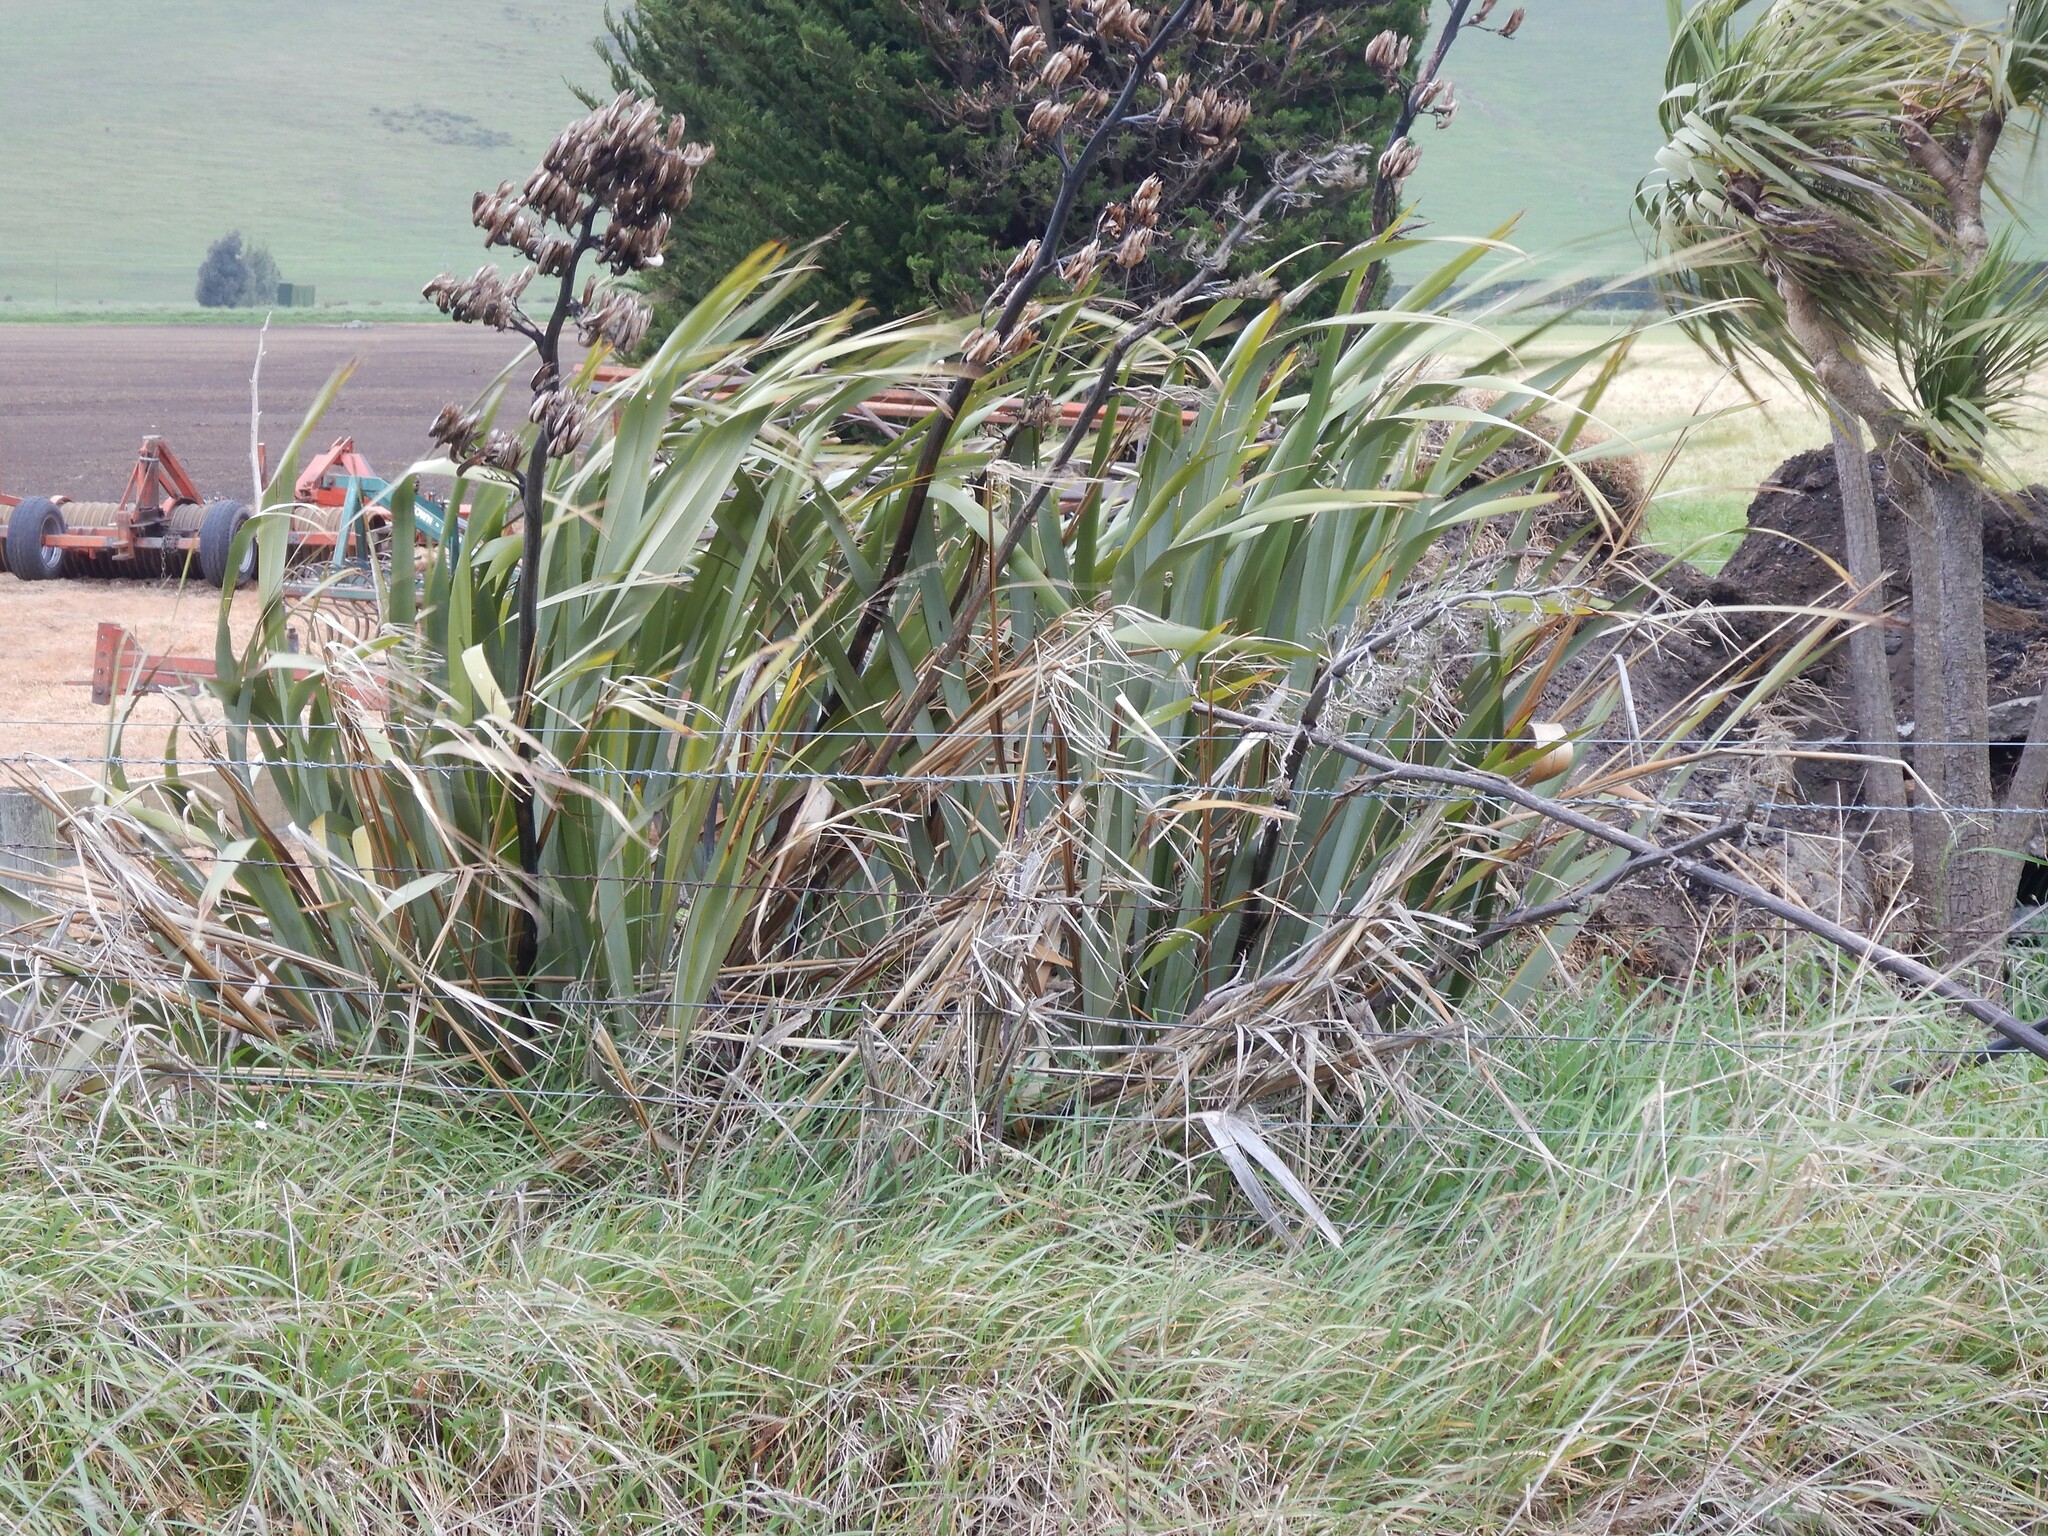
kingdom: Plantae
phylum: Tracheophyta
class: Liliopsida
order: Asparagales
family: Asphodelaceae
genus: Phormium
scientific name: Phormium tenax
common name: New zealand flax
